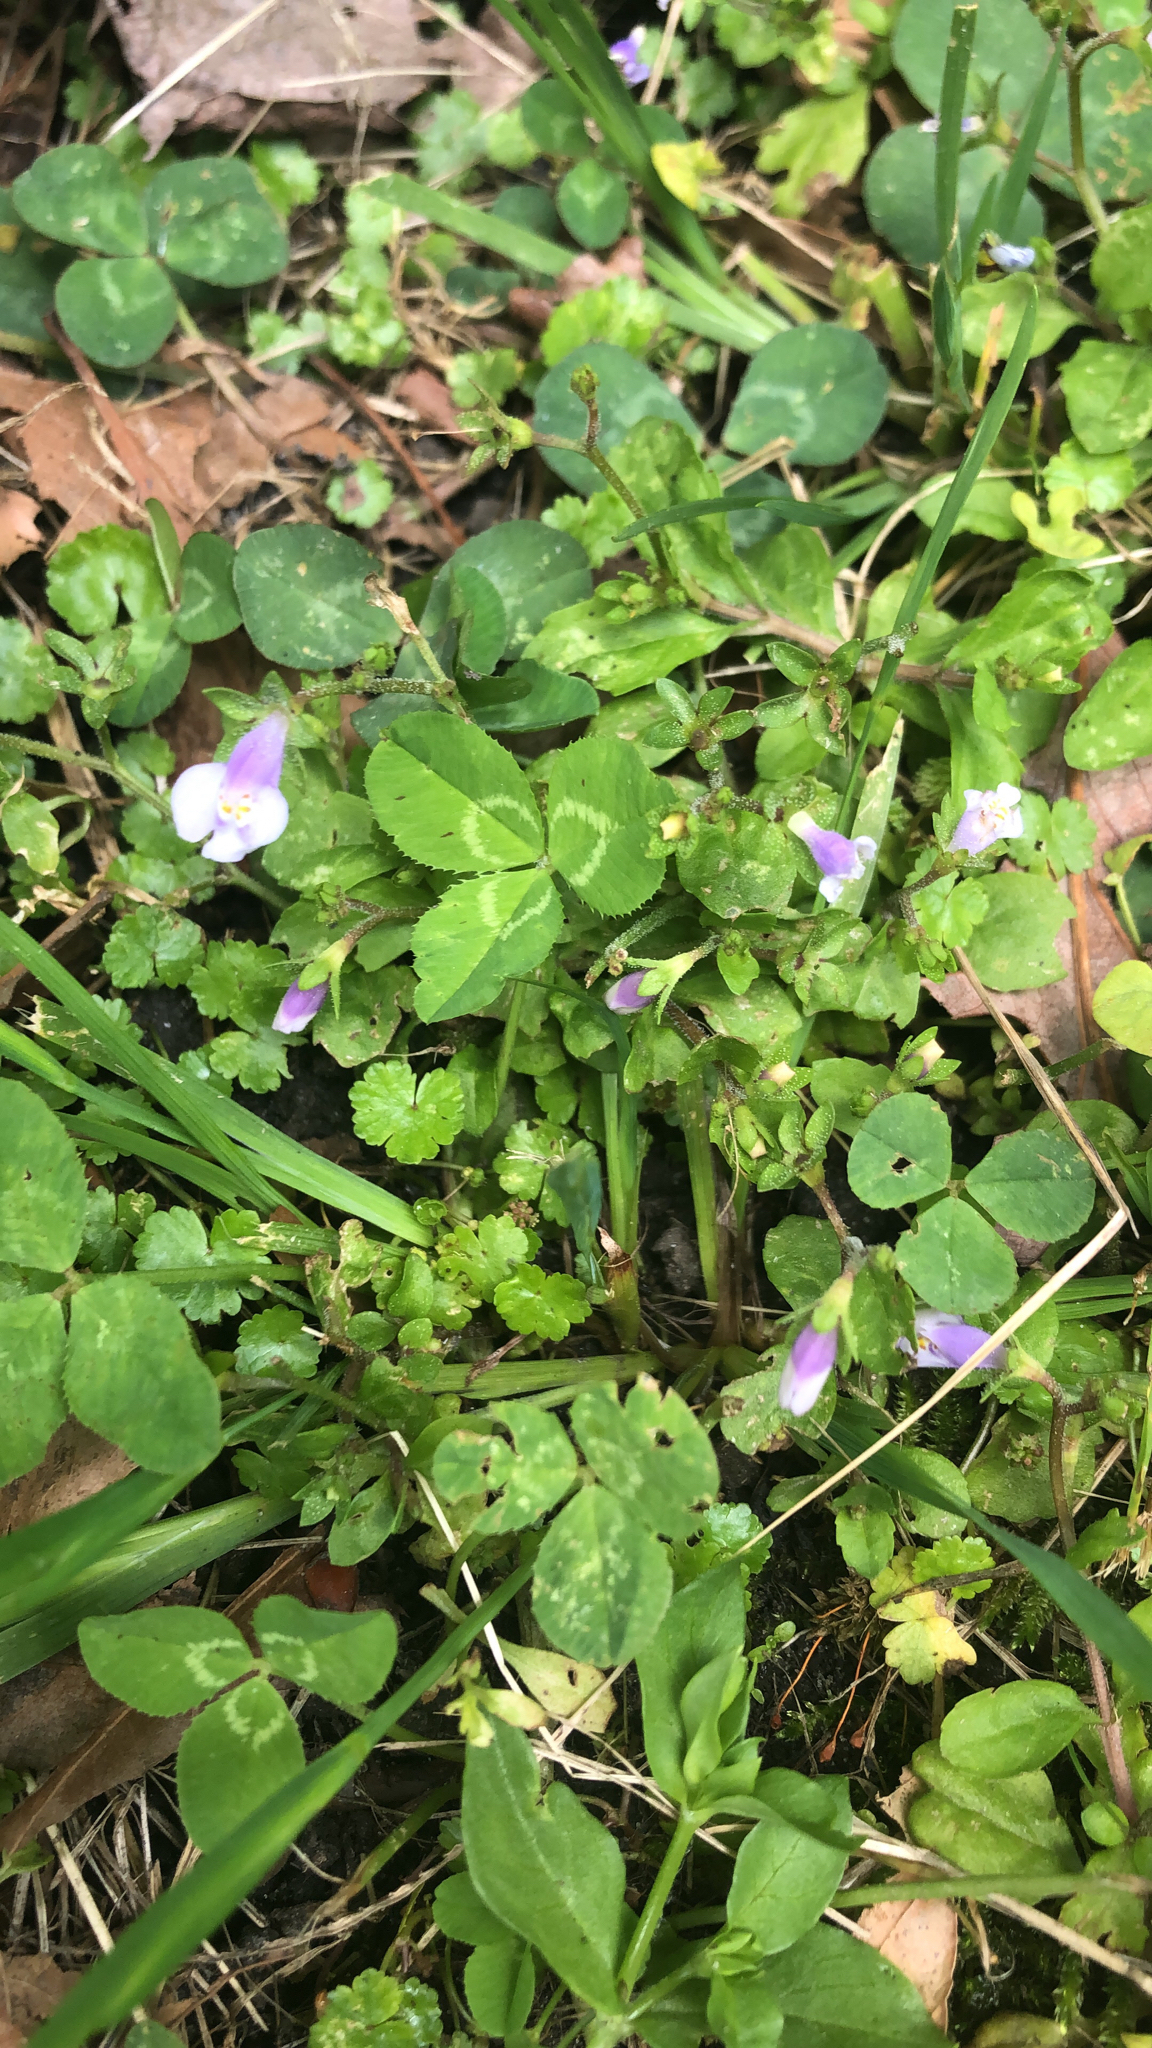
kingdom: Plantae
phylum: Tracheophyta
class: Magnoliopsida
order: Lamiales
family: Mazaceae
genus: Mazus
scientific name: Mazus pumilus
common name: Japanese mazus
